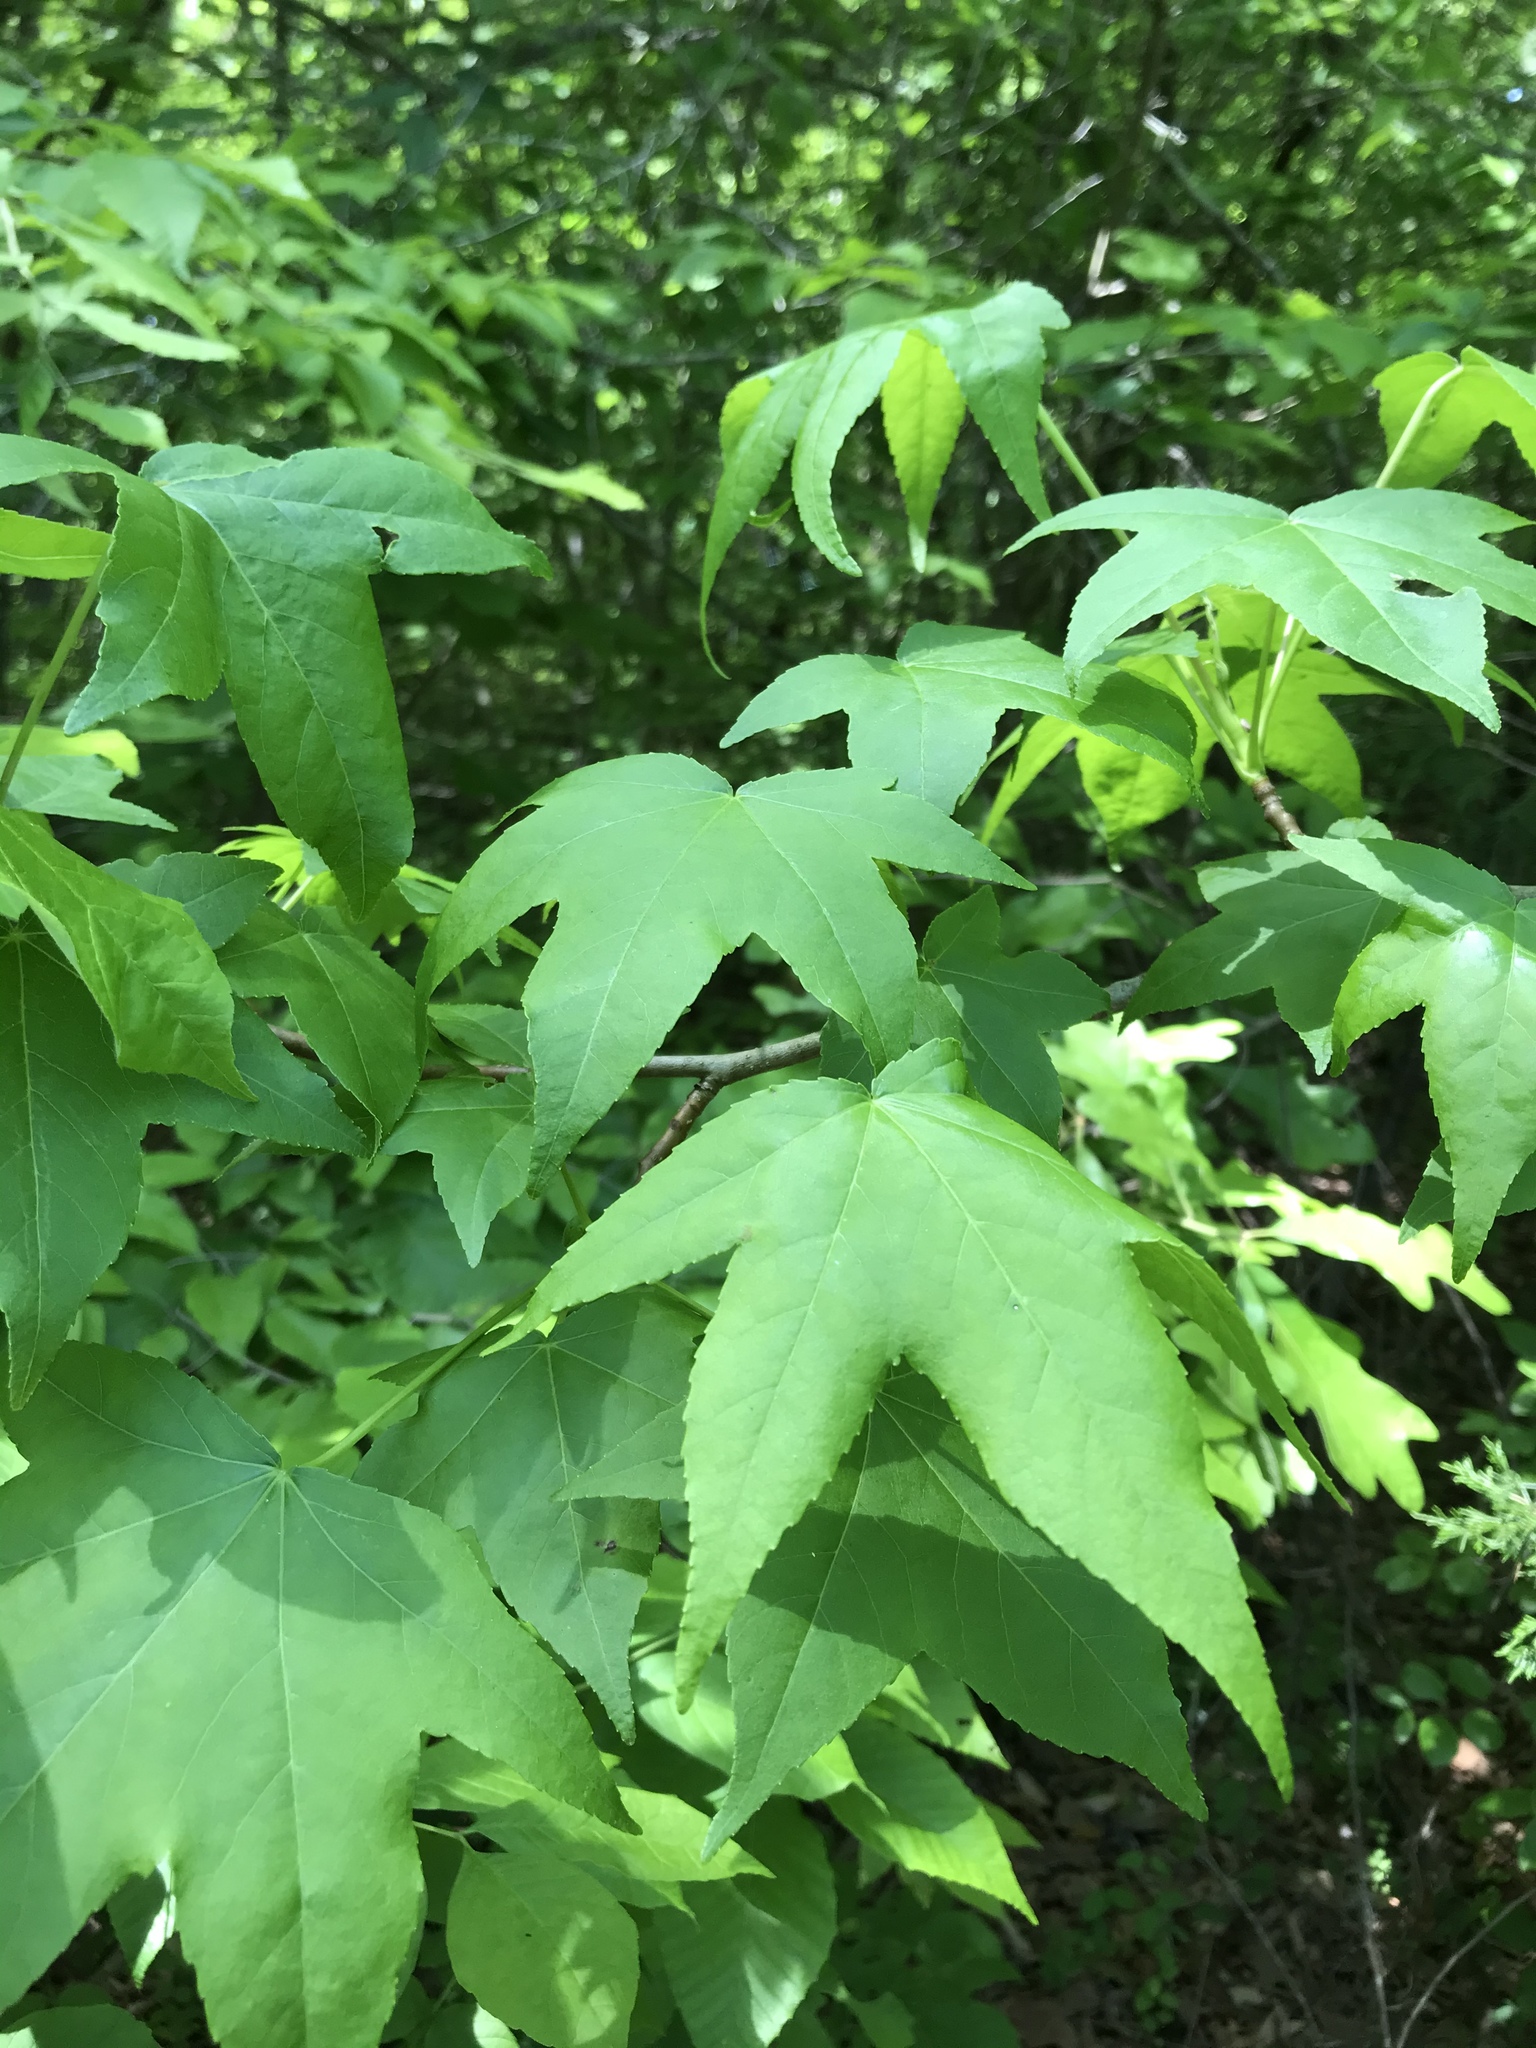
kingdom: Plantae
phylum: Tracheophyta
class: Magnoliopsida
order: Saxifragales
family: Altingiaceae
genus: Liquidambar
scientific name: Liquidambar styraciflua
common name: Sweet gum
